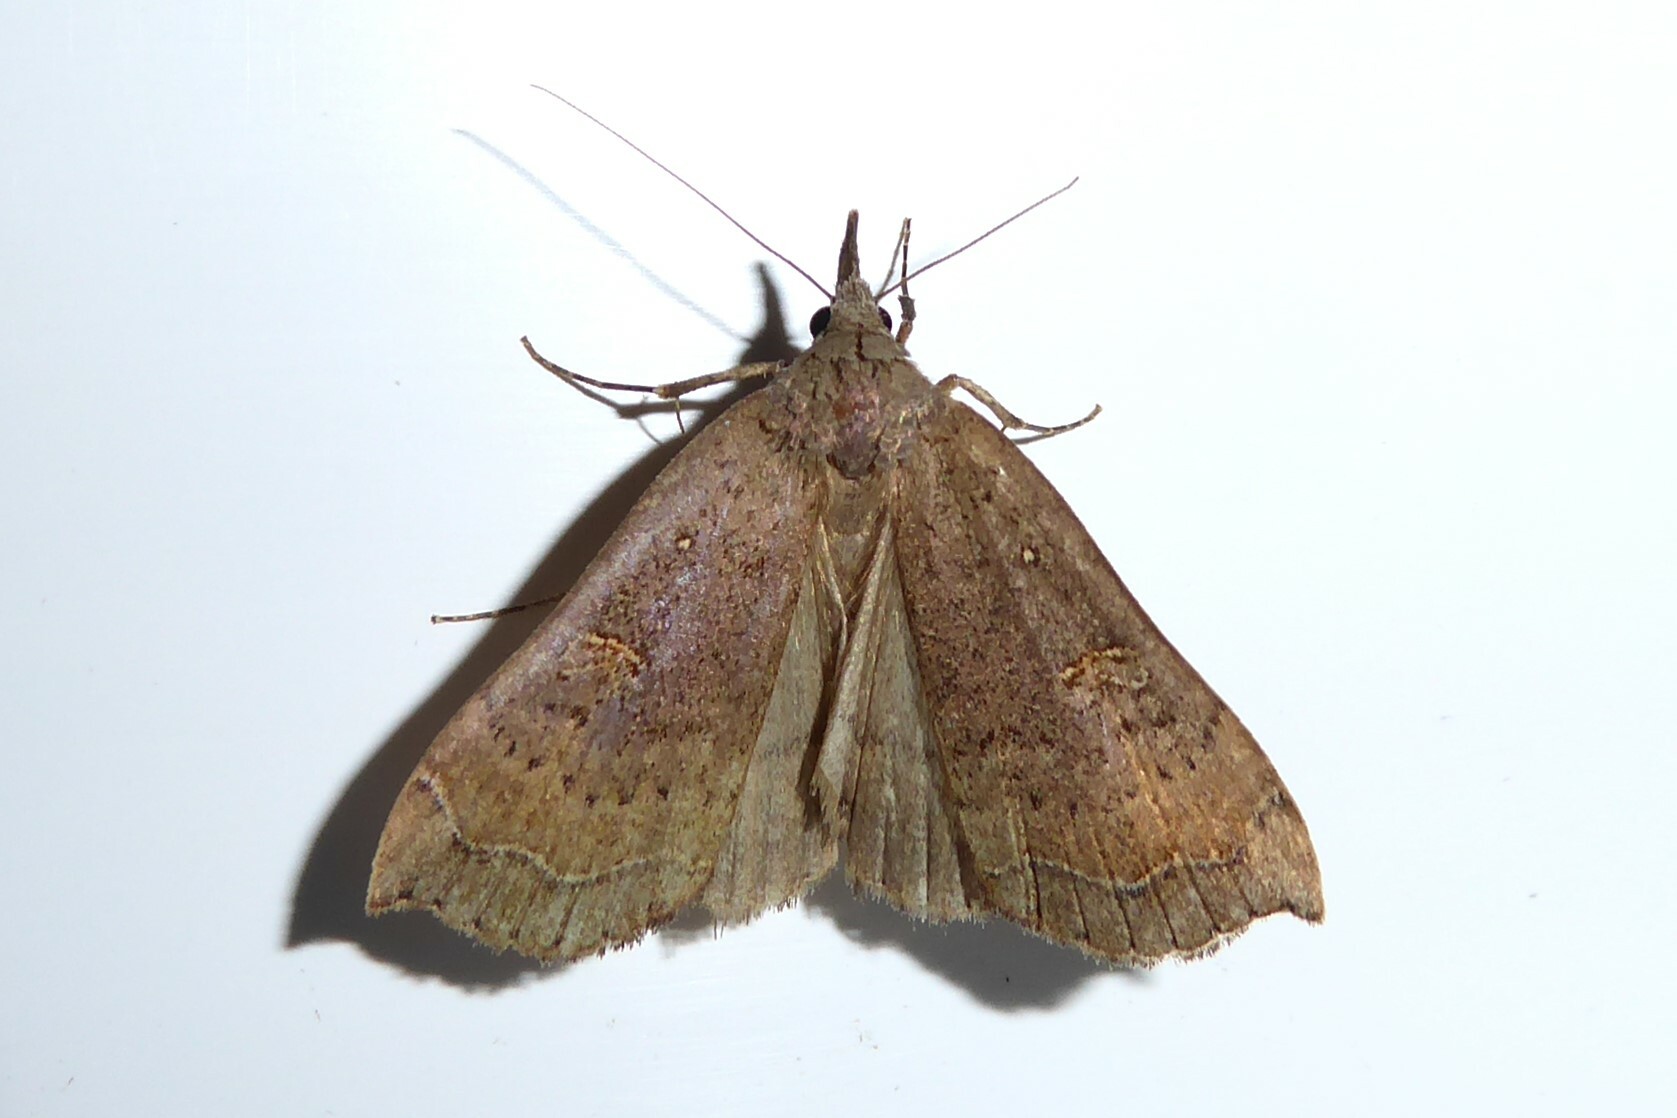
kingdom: Animalia
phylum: Arthropoda
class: Insecta
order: Lepidoptera
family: Erebidae
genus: Rhapsa
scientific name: Rhapsa scotosialis
